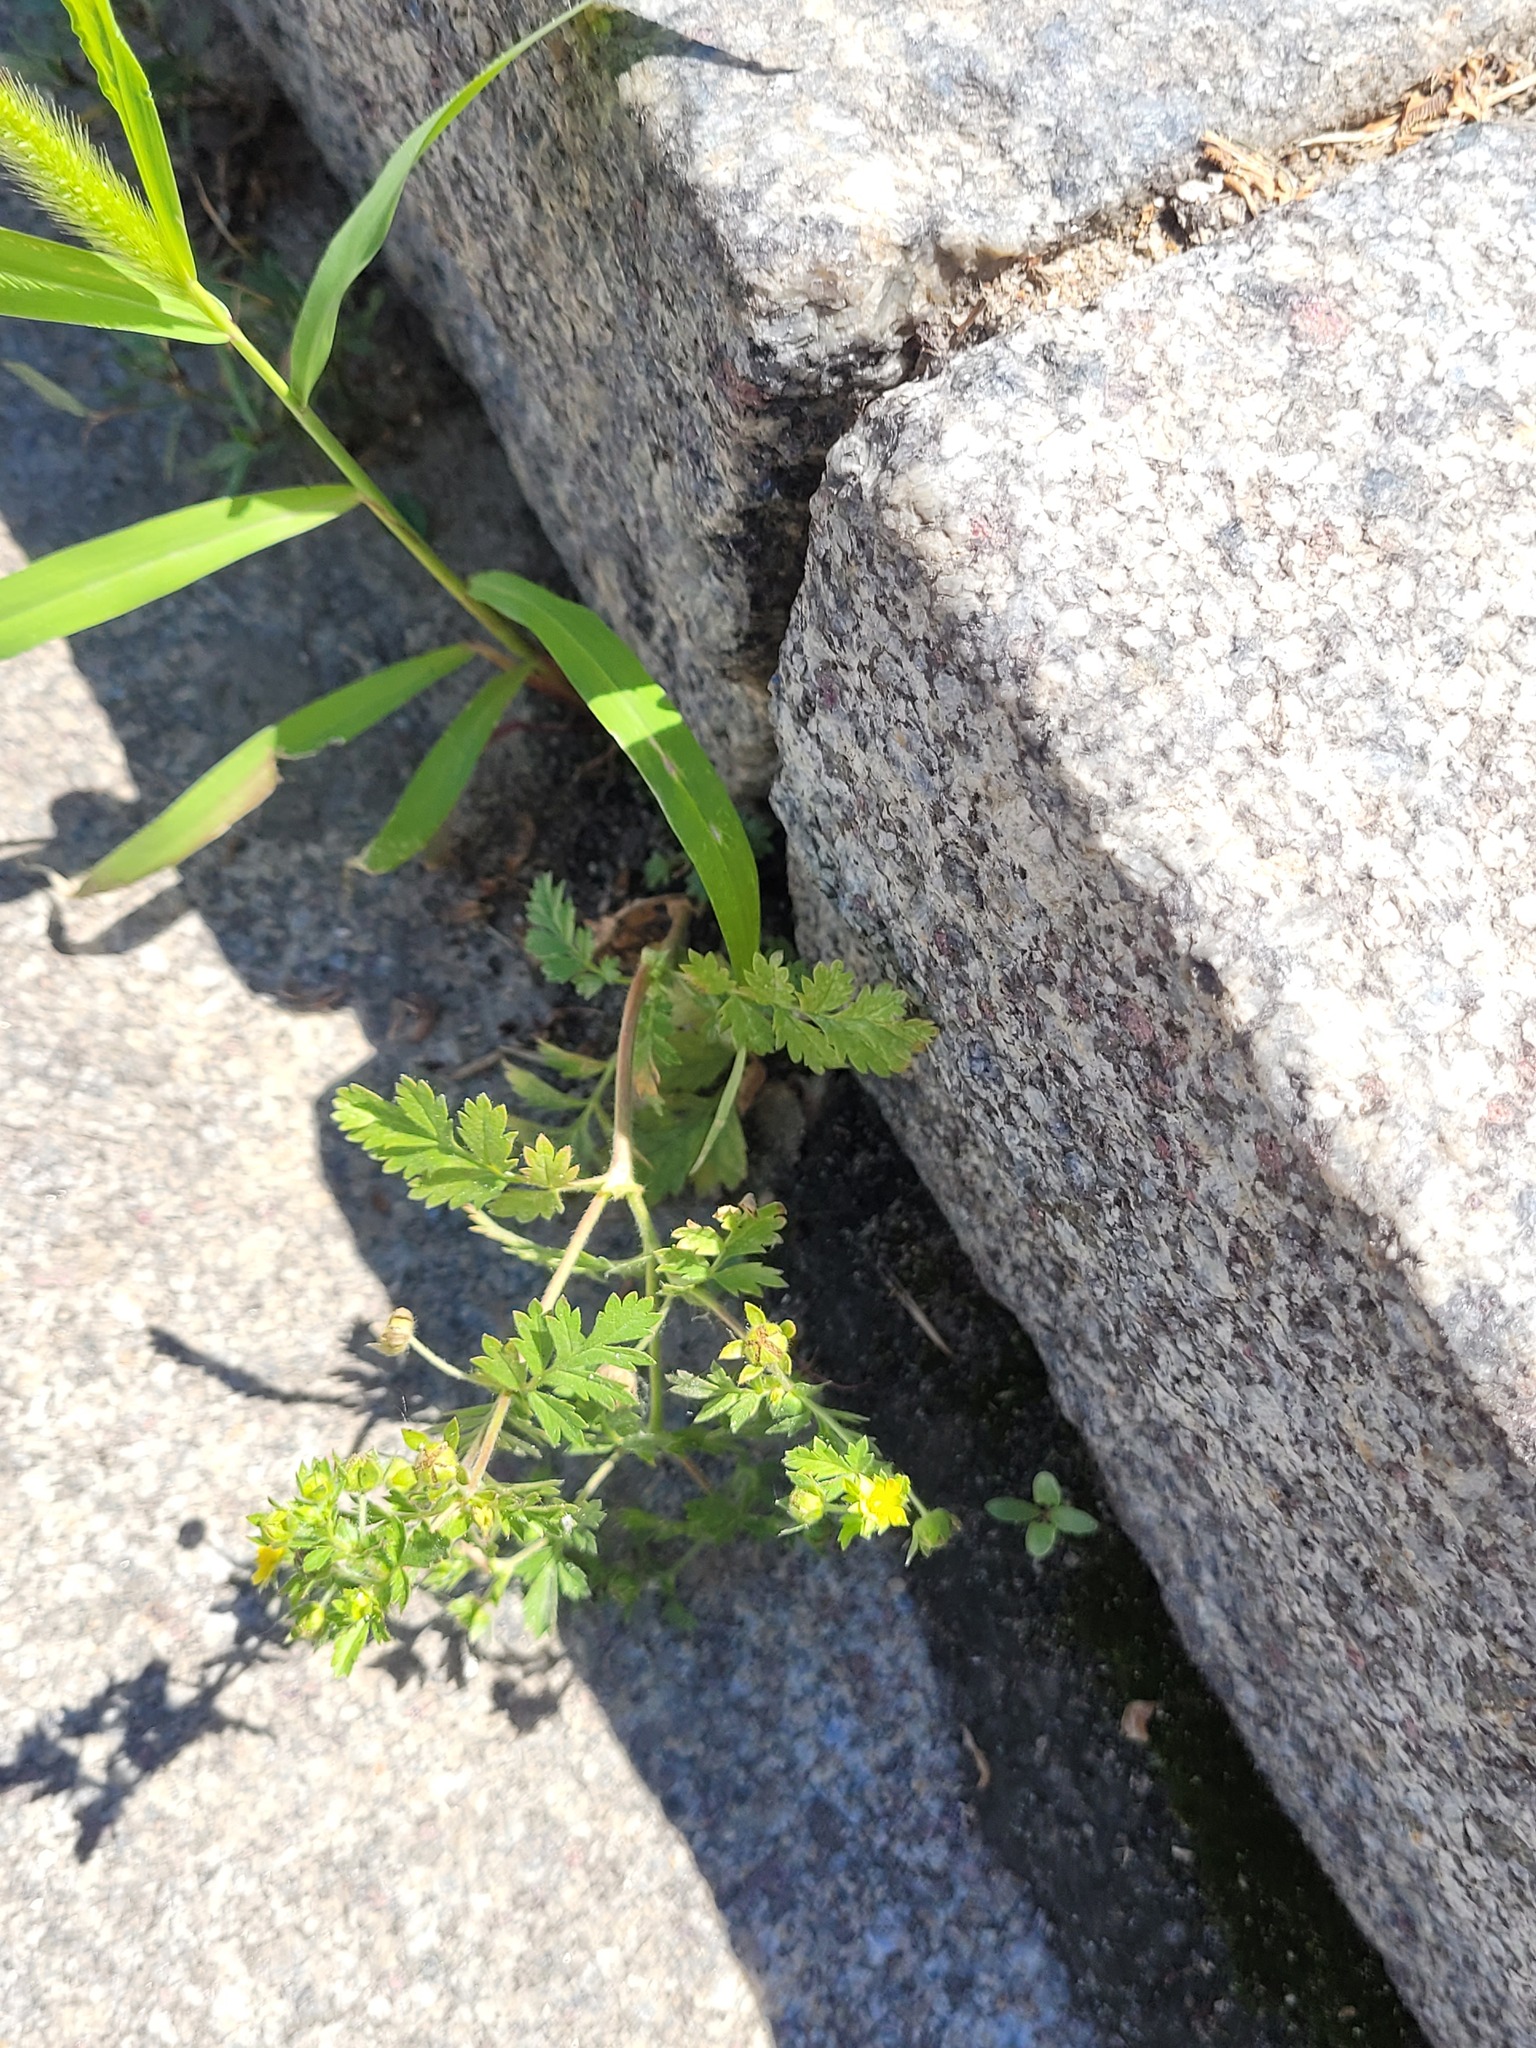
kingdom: Plantae
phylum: Tracheophyta
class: Magnoliopsida
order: Rosales
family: Rosaceae
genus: Potentilla
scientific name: Potentilla supina
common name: Prostrate cinquefoil
